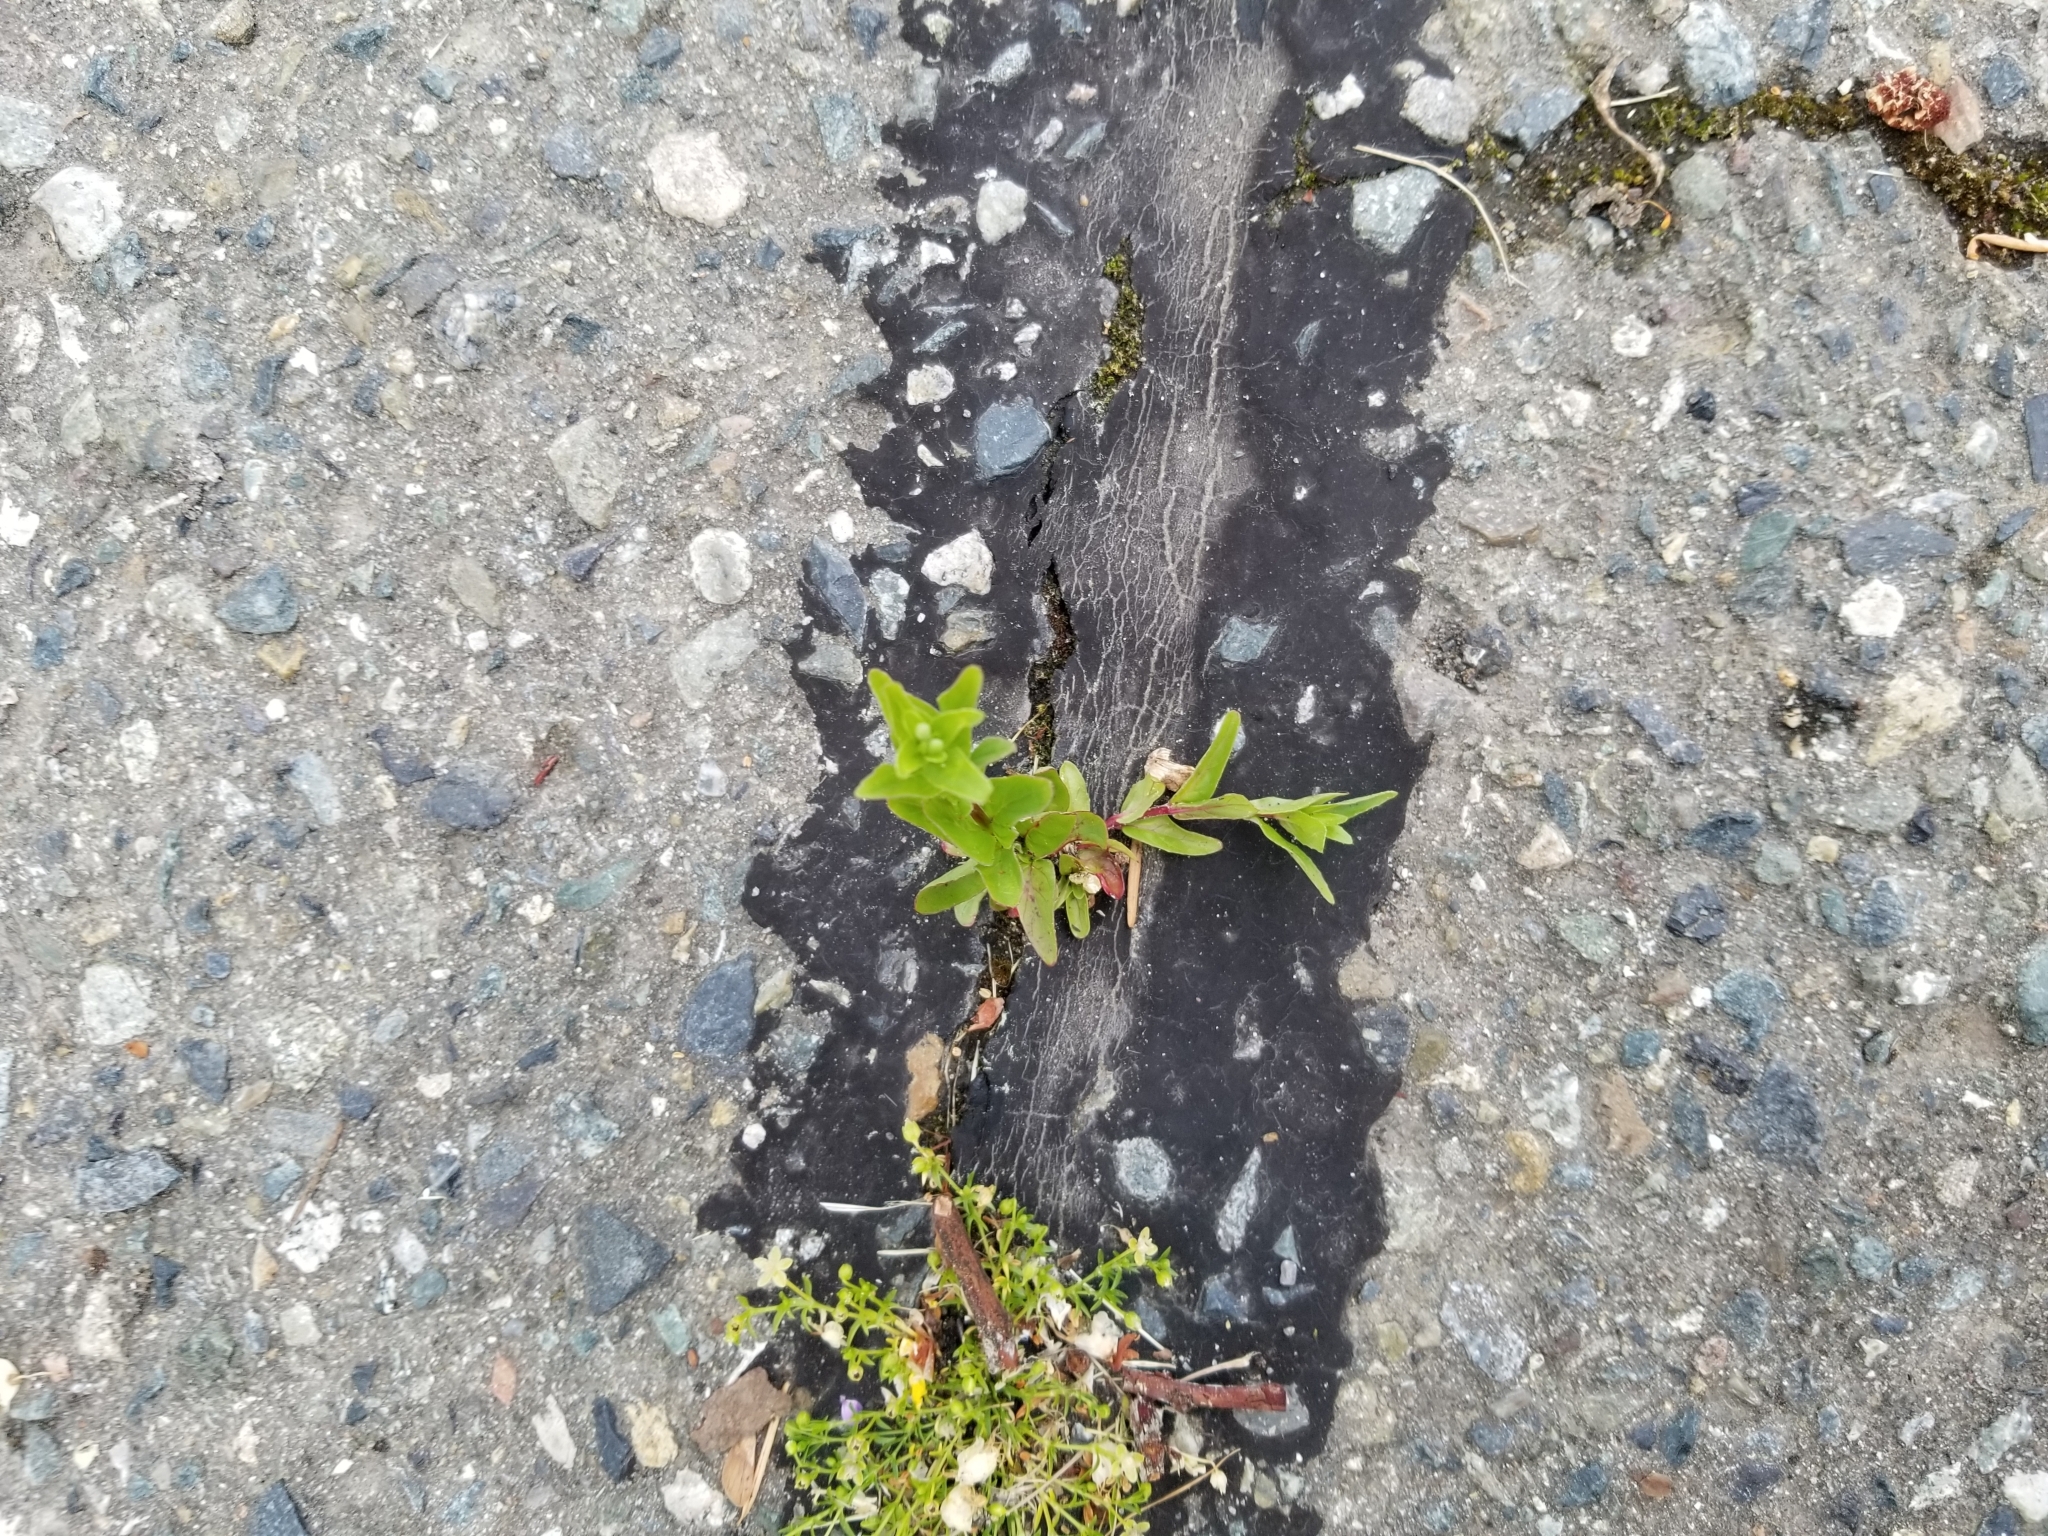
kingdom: Plantae
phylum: Tracheophyta
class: Magnoliopsida
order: Myrtales
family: Onagraceae
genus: Epilobium
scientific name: Epilobium ciliatum
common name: American willowherb
